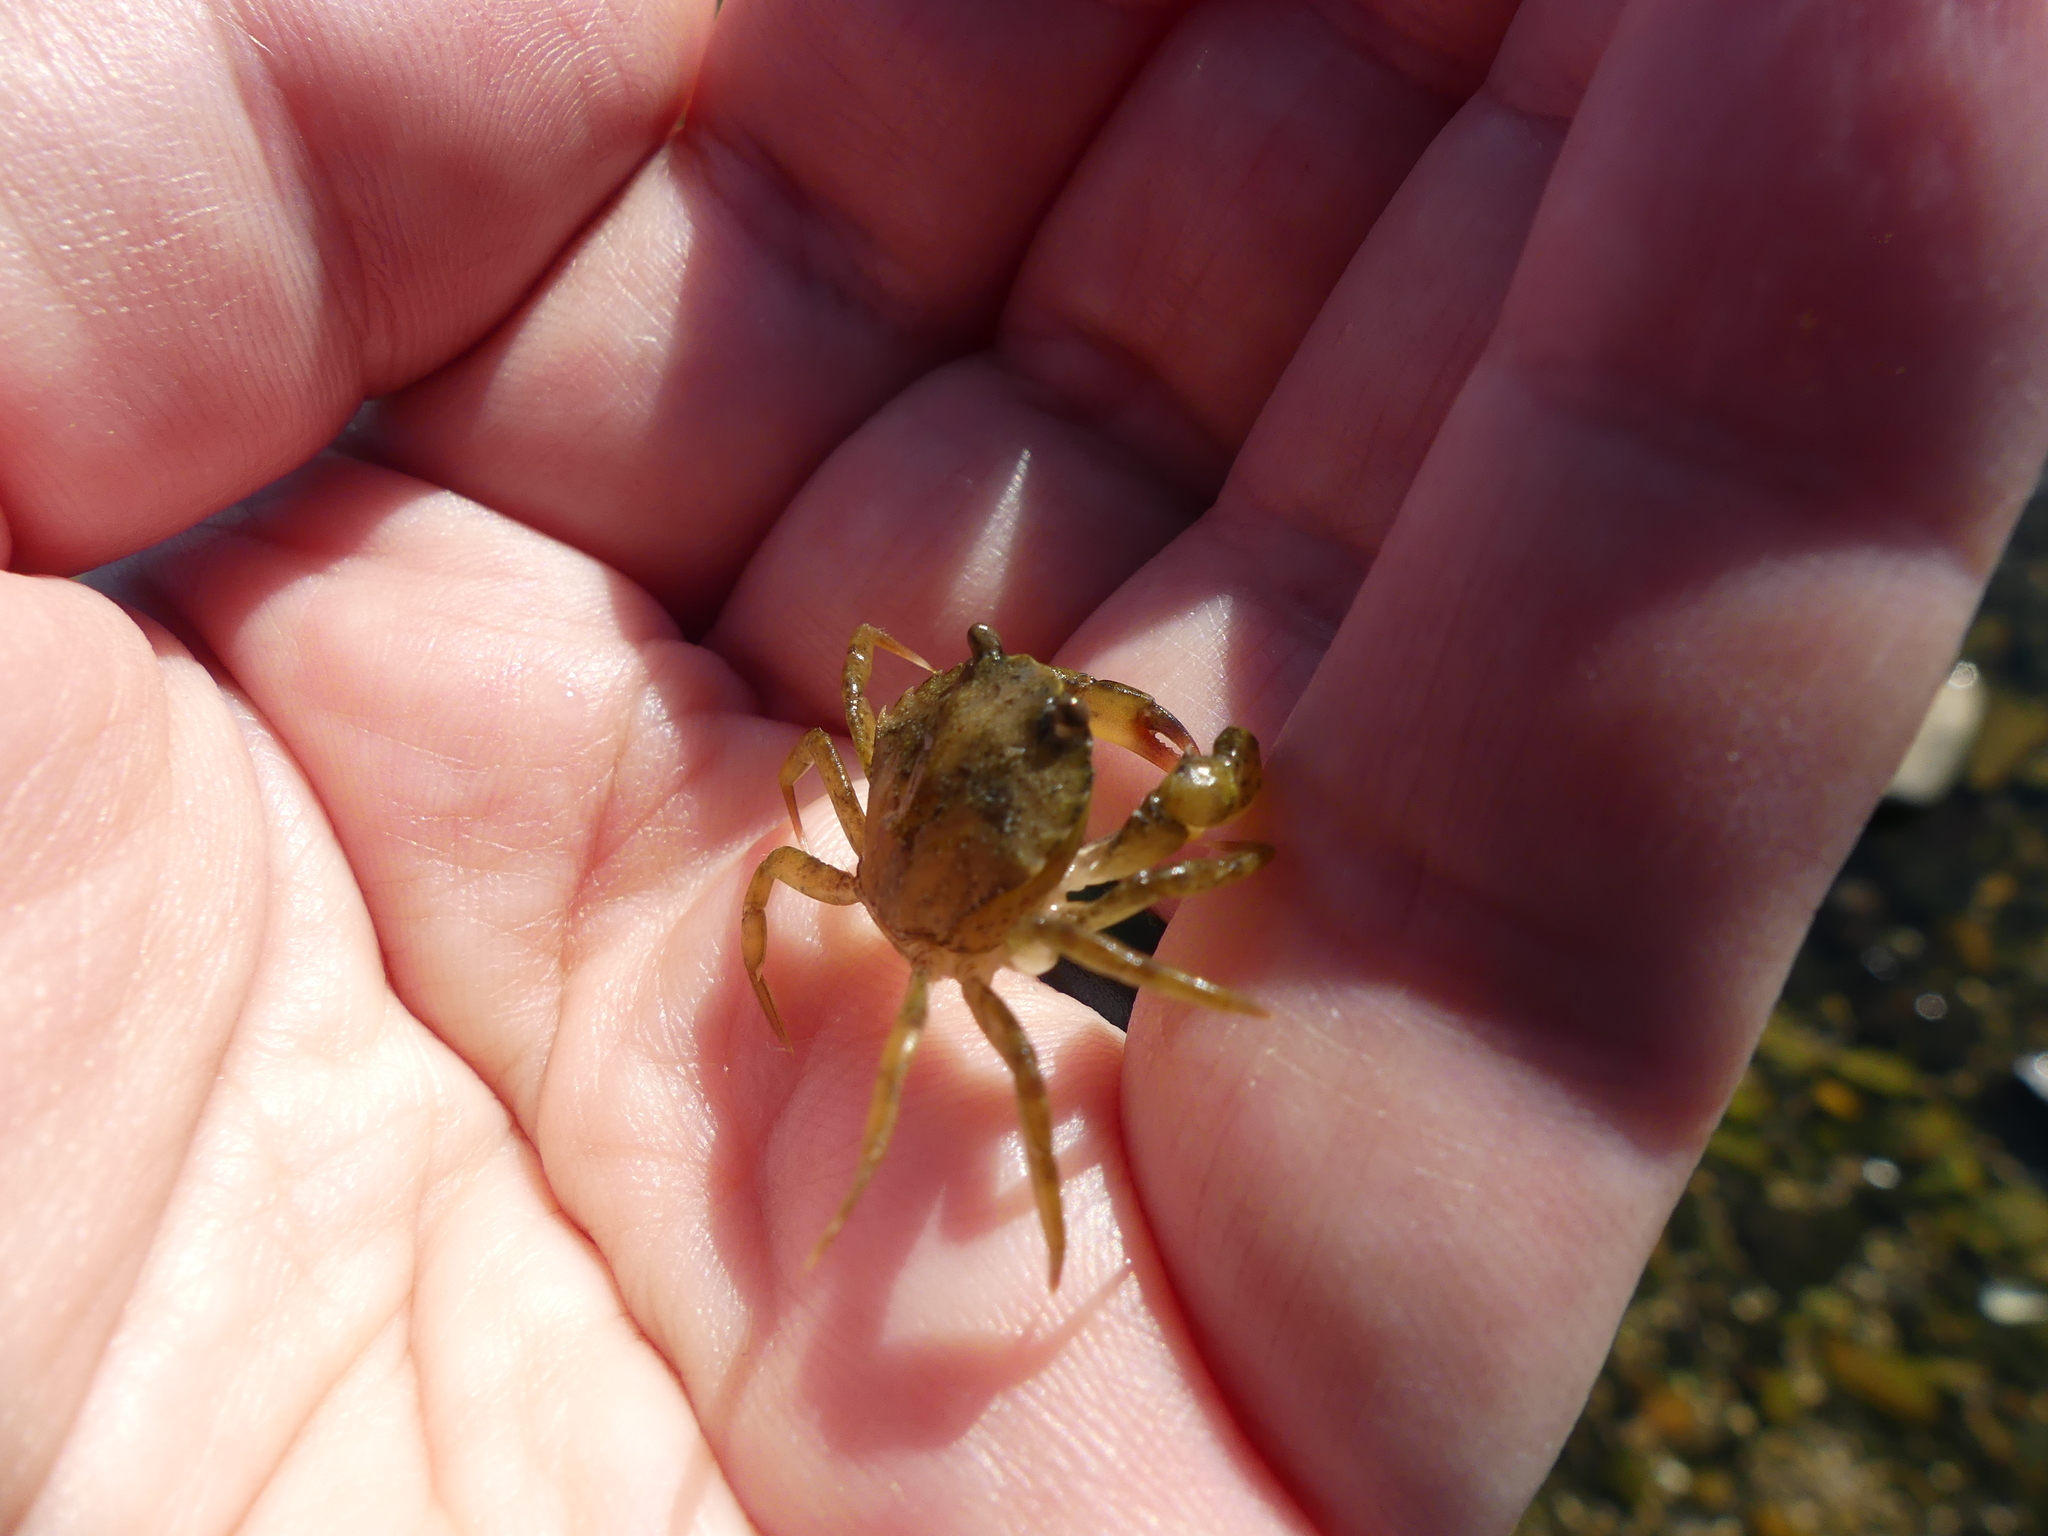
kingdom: Animalia
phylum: Arthropoda
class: Malacostraca
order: Decapoda
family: Carcinidae
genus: Carcinus
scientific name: Carcinus maenas
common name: European green crab
